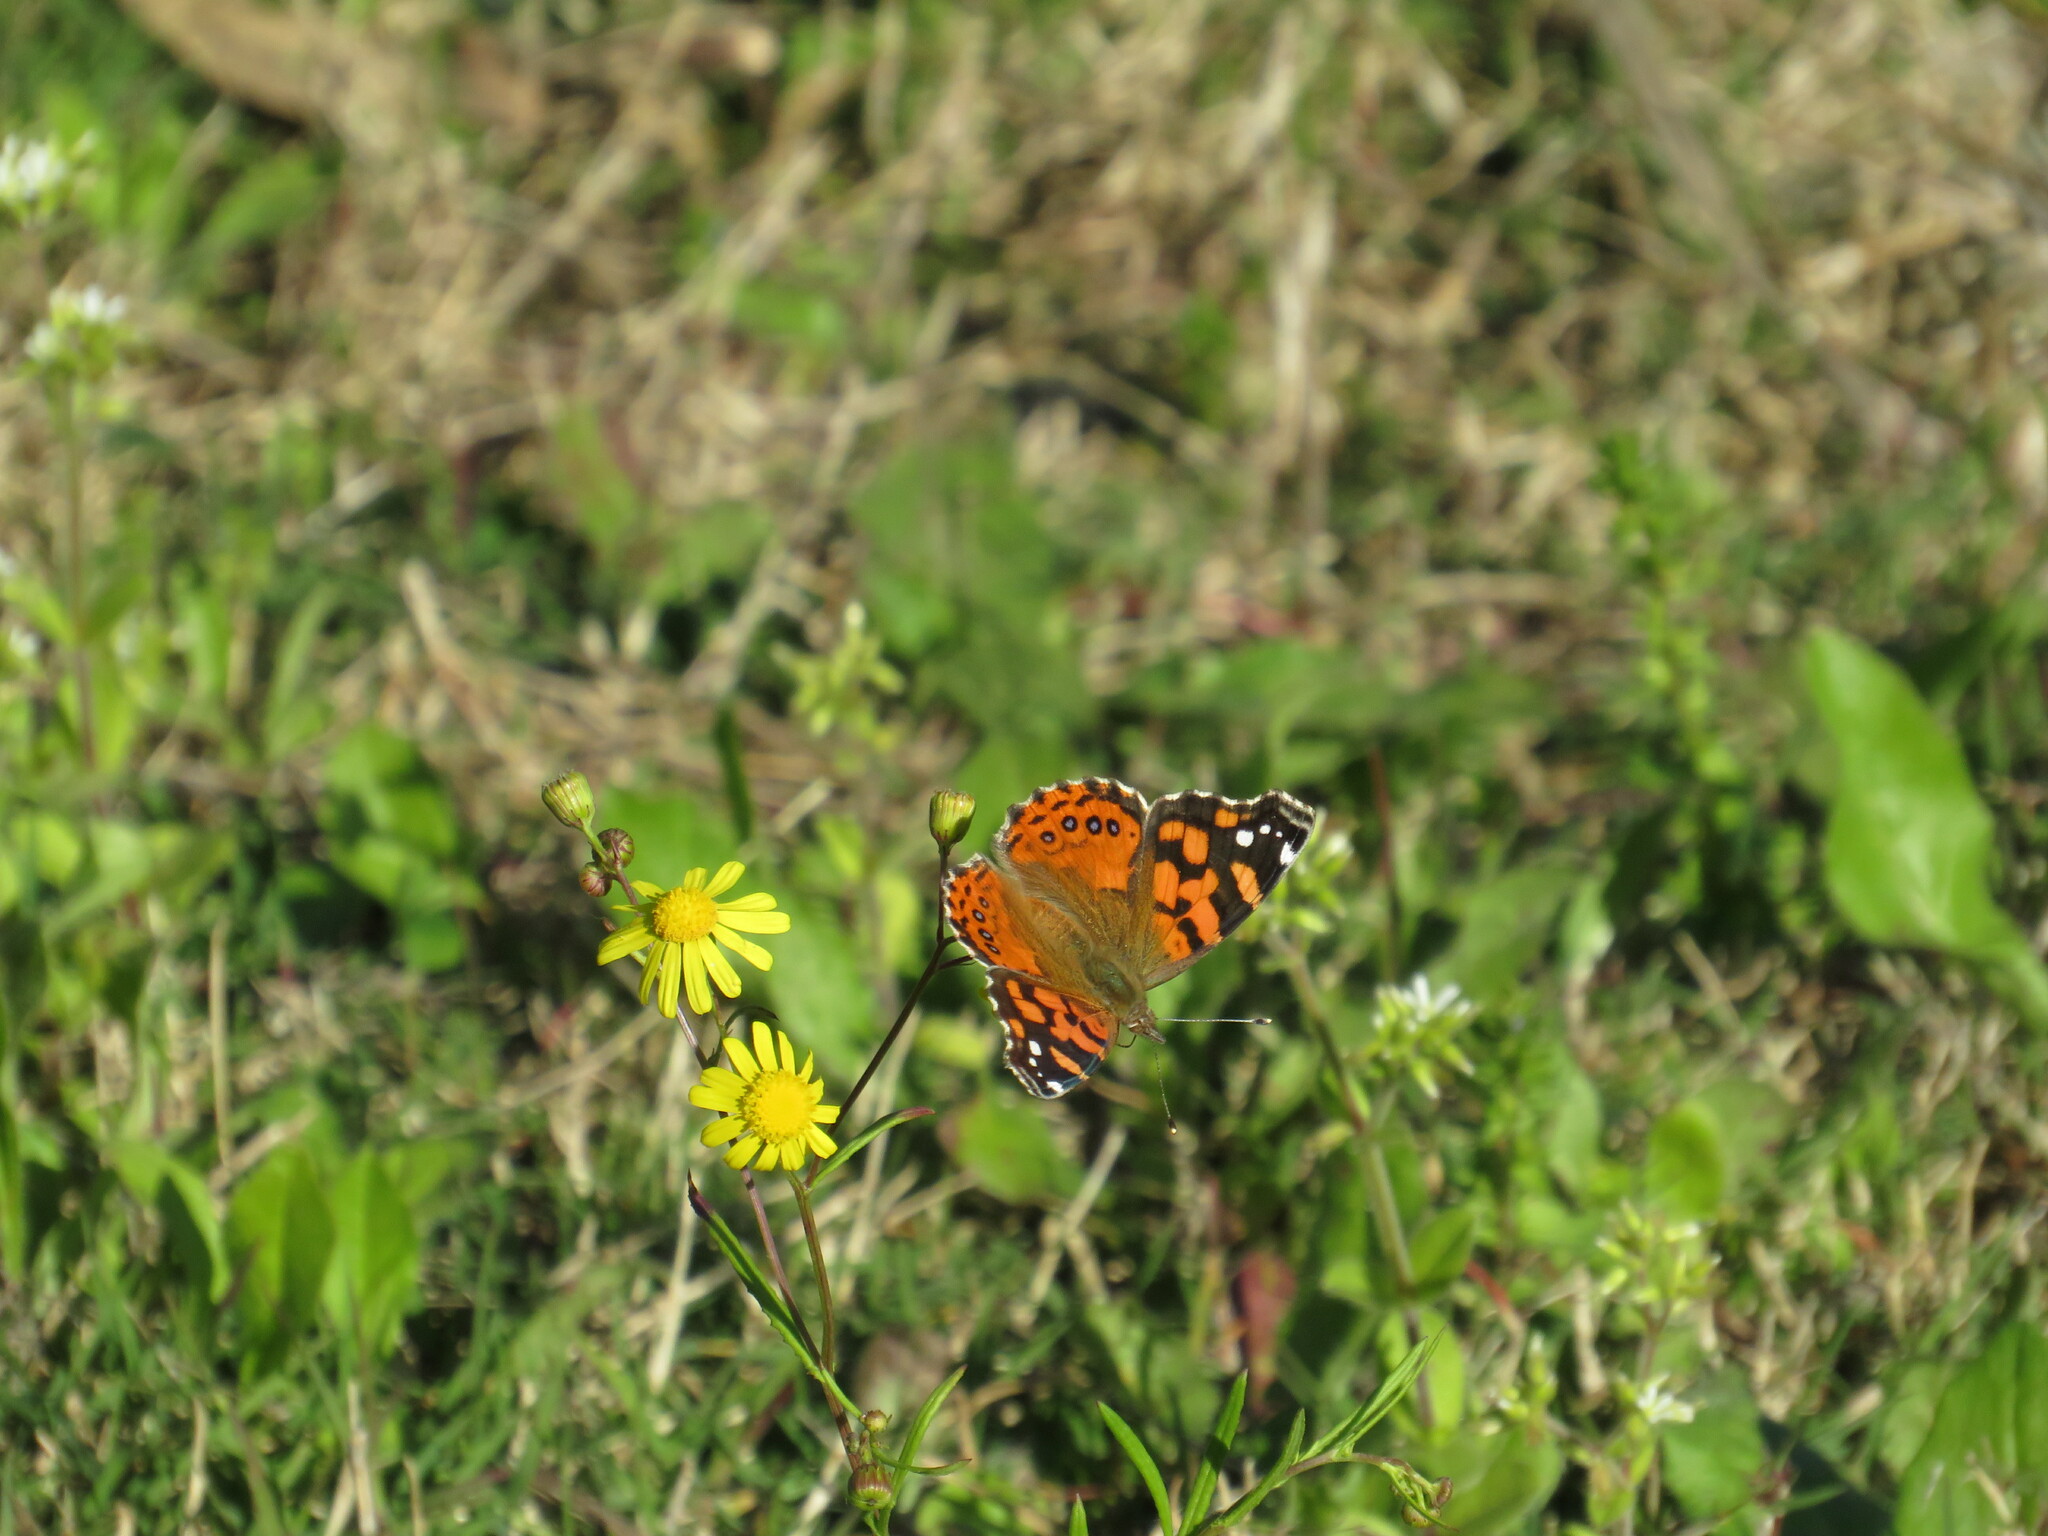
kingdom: Animalia
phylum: Arthropoda
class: Insecta
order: Lepidoptera
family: Nymphalidae
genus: Vanessa
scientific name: Vanessa carye
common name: Subtropical lady
